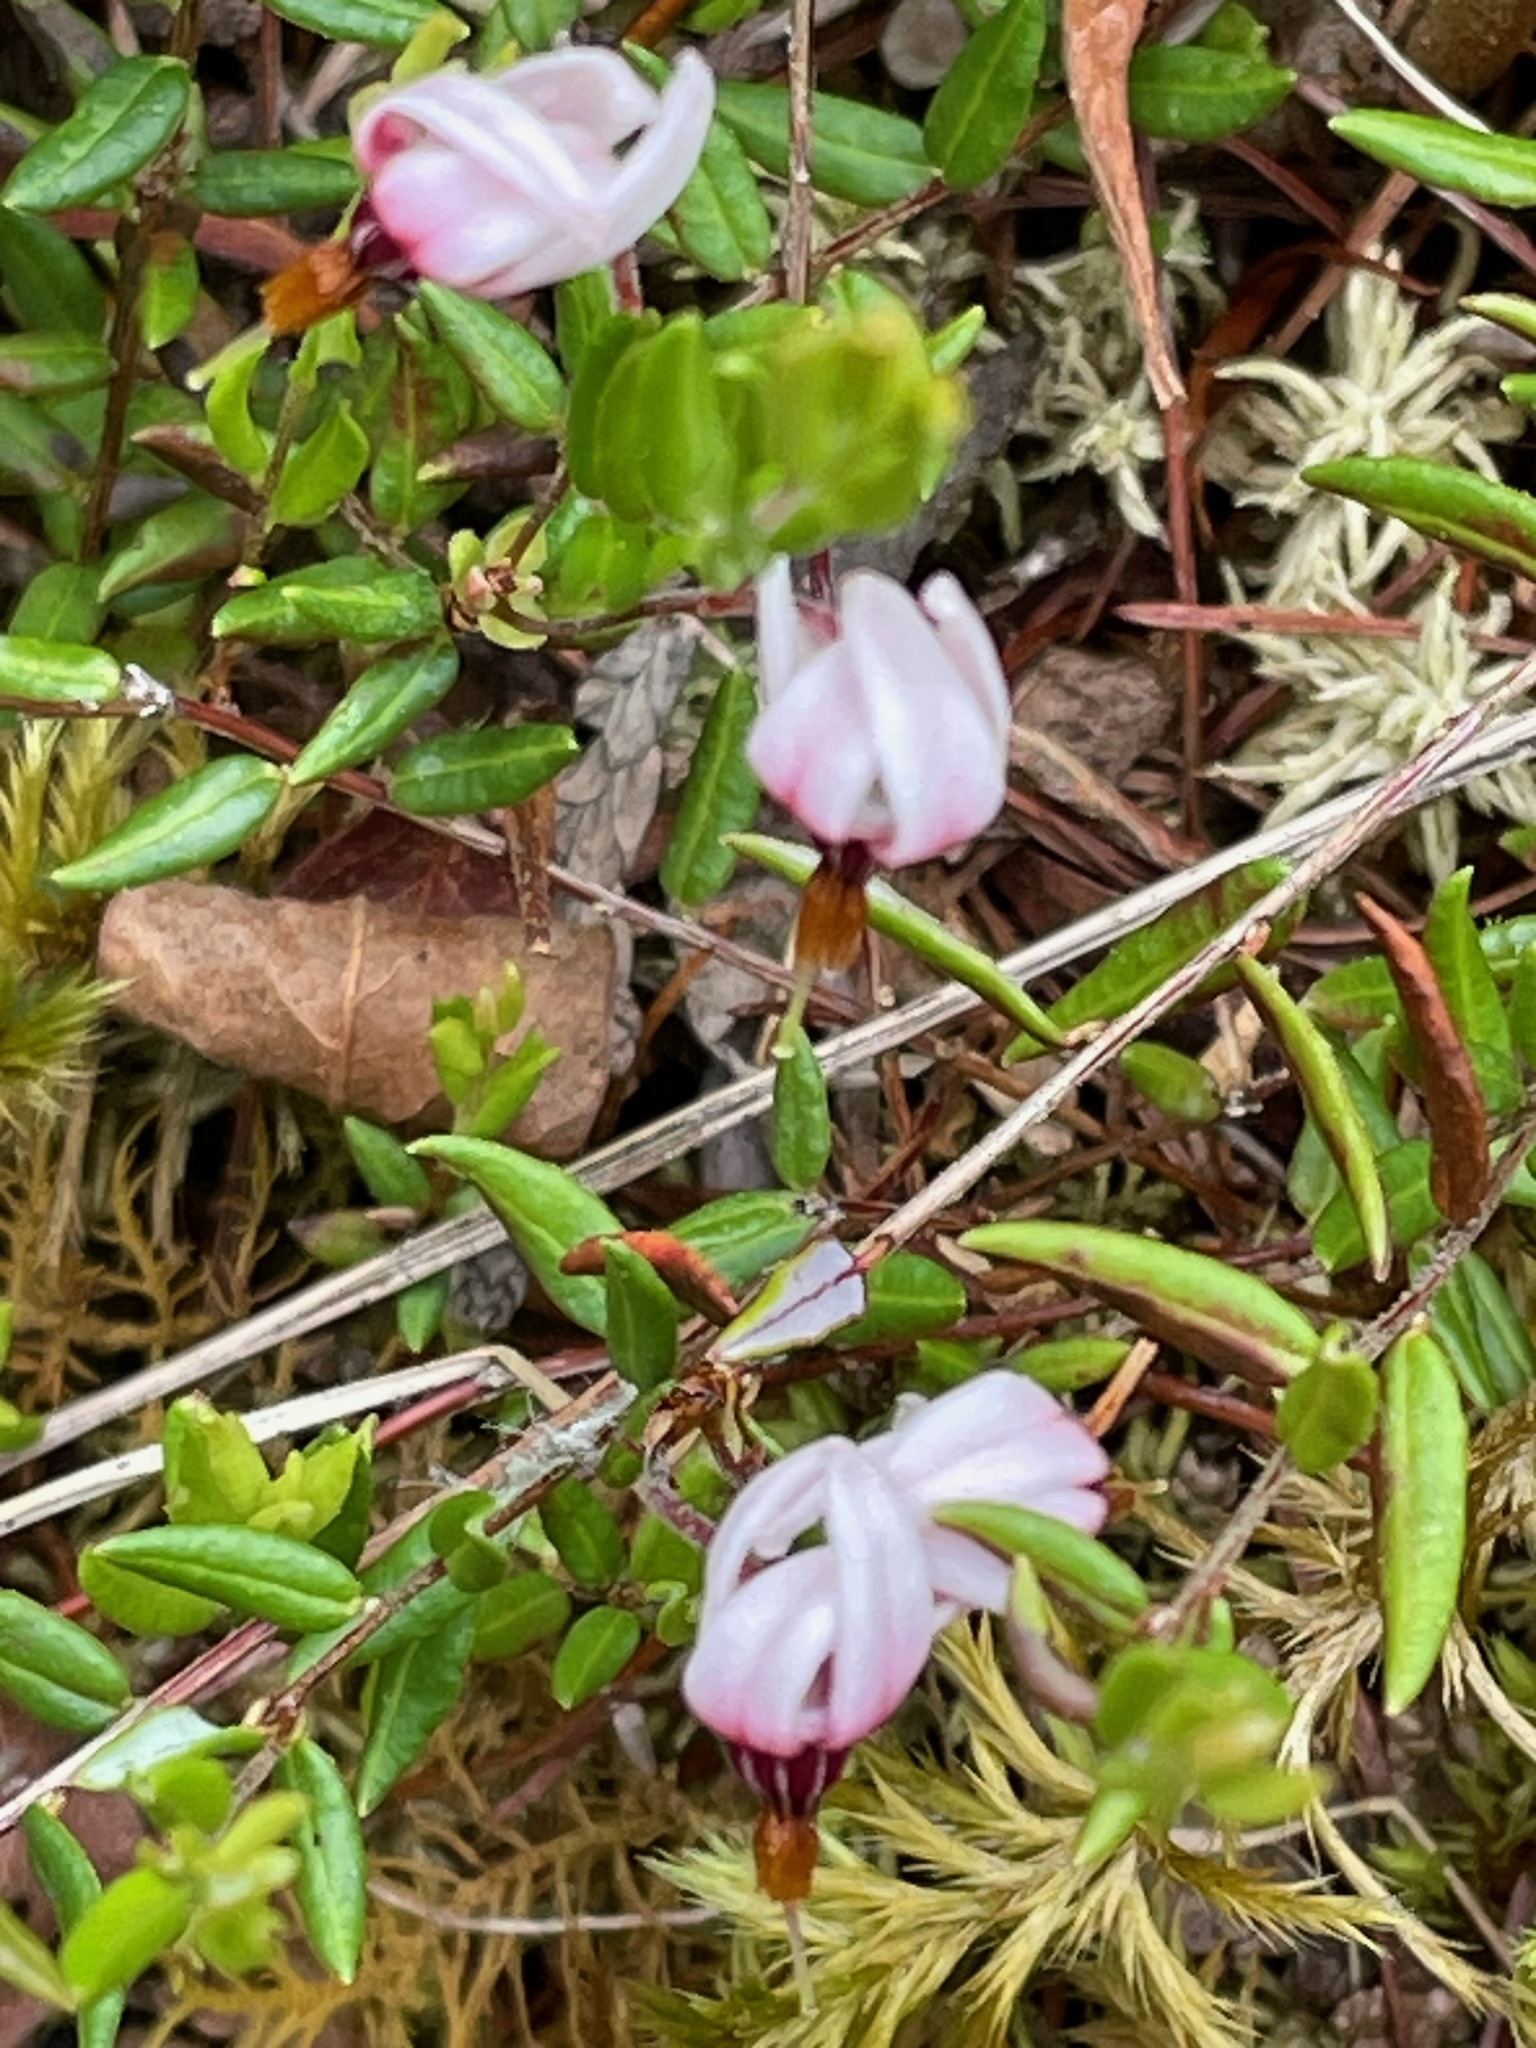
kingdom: Plantae
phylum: Tracheophyta
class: Magnoliopsida
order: Ericales
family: Ericaceae
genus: Vaccinium
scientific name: Vaccinium oxycoccos
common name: Cranberry
